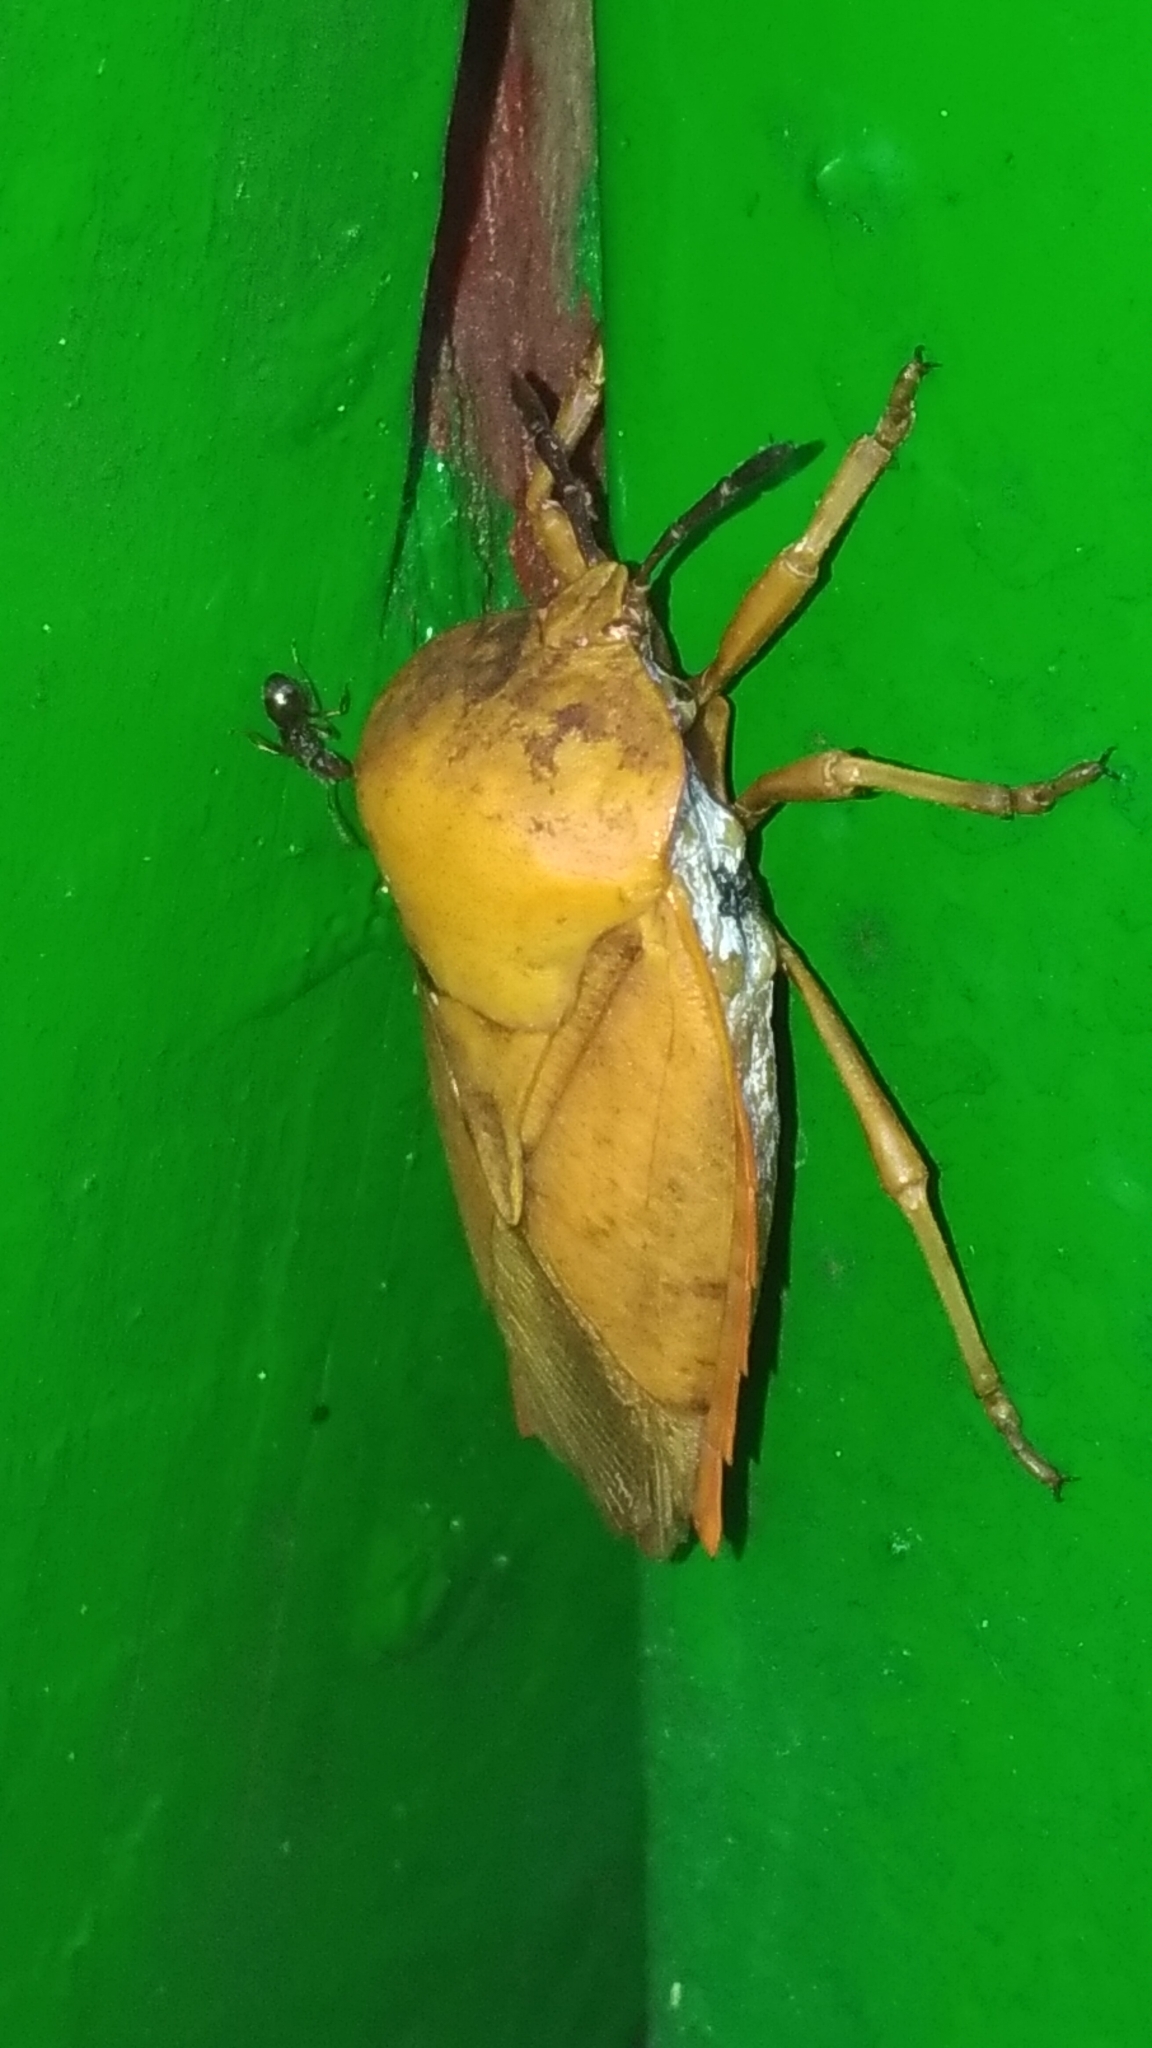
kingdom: Animalia
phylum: Arthropoda
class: Insecta
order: Hemiptera
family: Tessaratomidae
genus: Tessaratoma
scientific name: Tessaratoma papillosa
